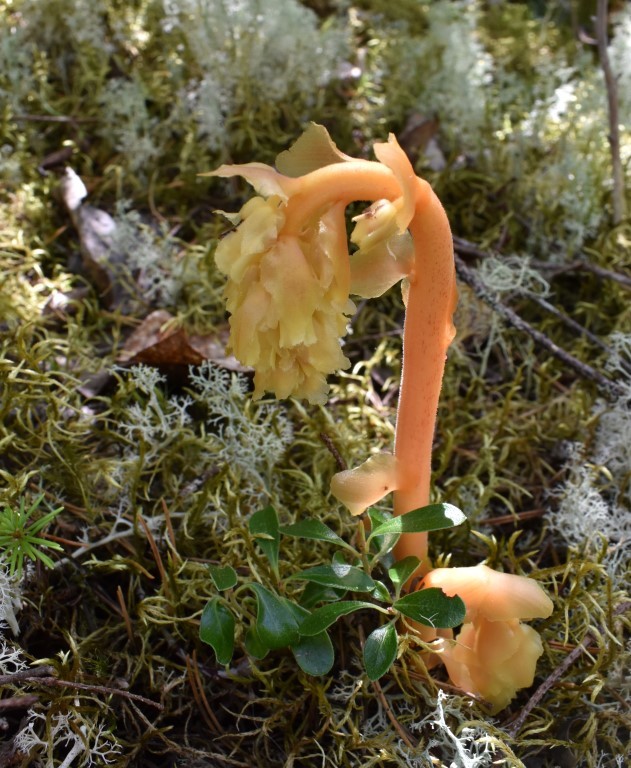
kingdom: Plantae
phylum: Tracheophyta
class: Magnoliopsida
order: Ericales
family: Ericaceae
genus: Hypopitys
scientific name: Hypopitys monotropa
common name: Yellow bird's-nest
